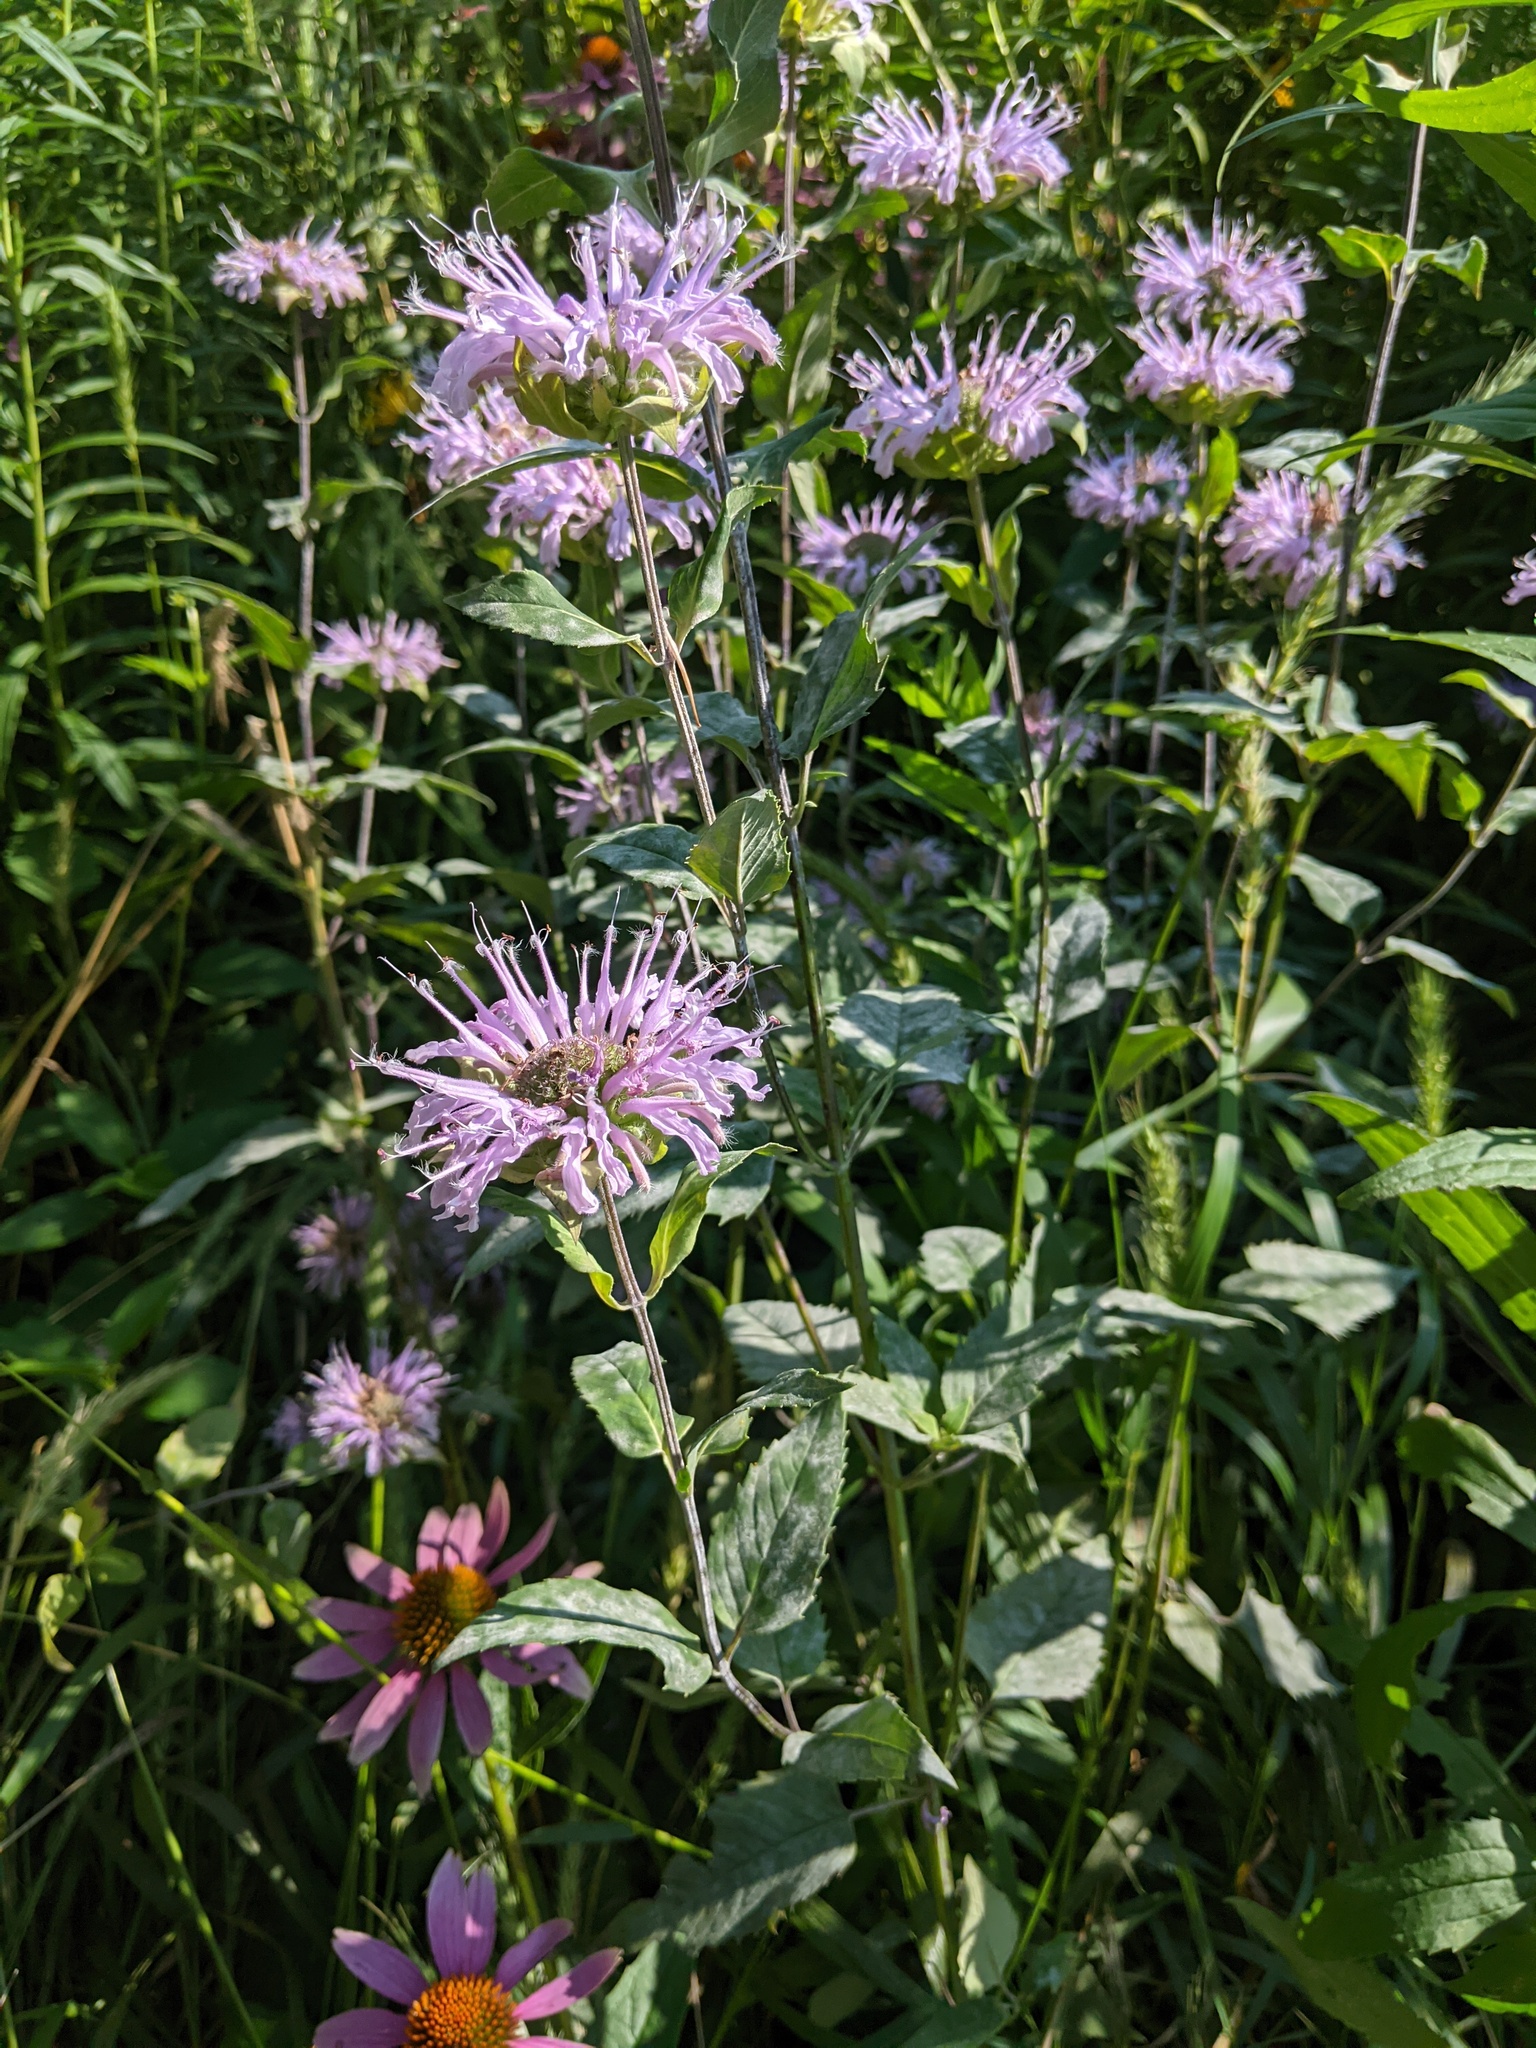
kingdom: Plantae
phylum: Tracheophyta
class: Magnoliopsida
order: Lamiales
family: Lamiaceae
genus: Monarda
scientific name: Monarda fistulosa
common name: Purple beebalm
